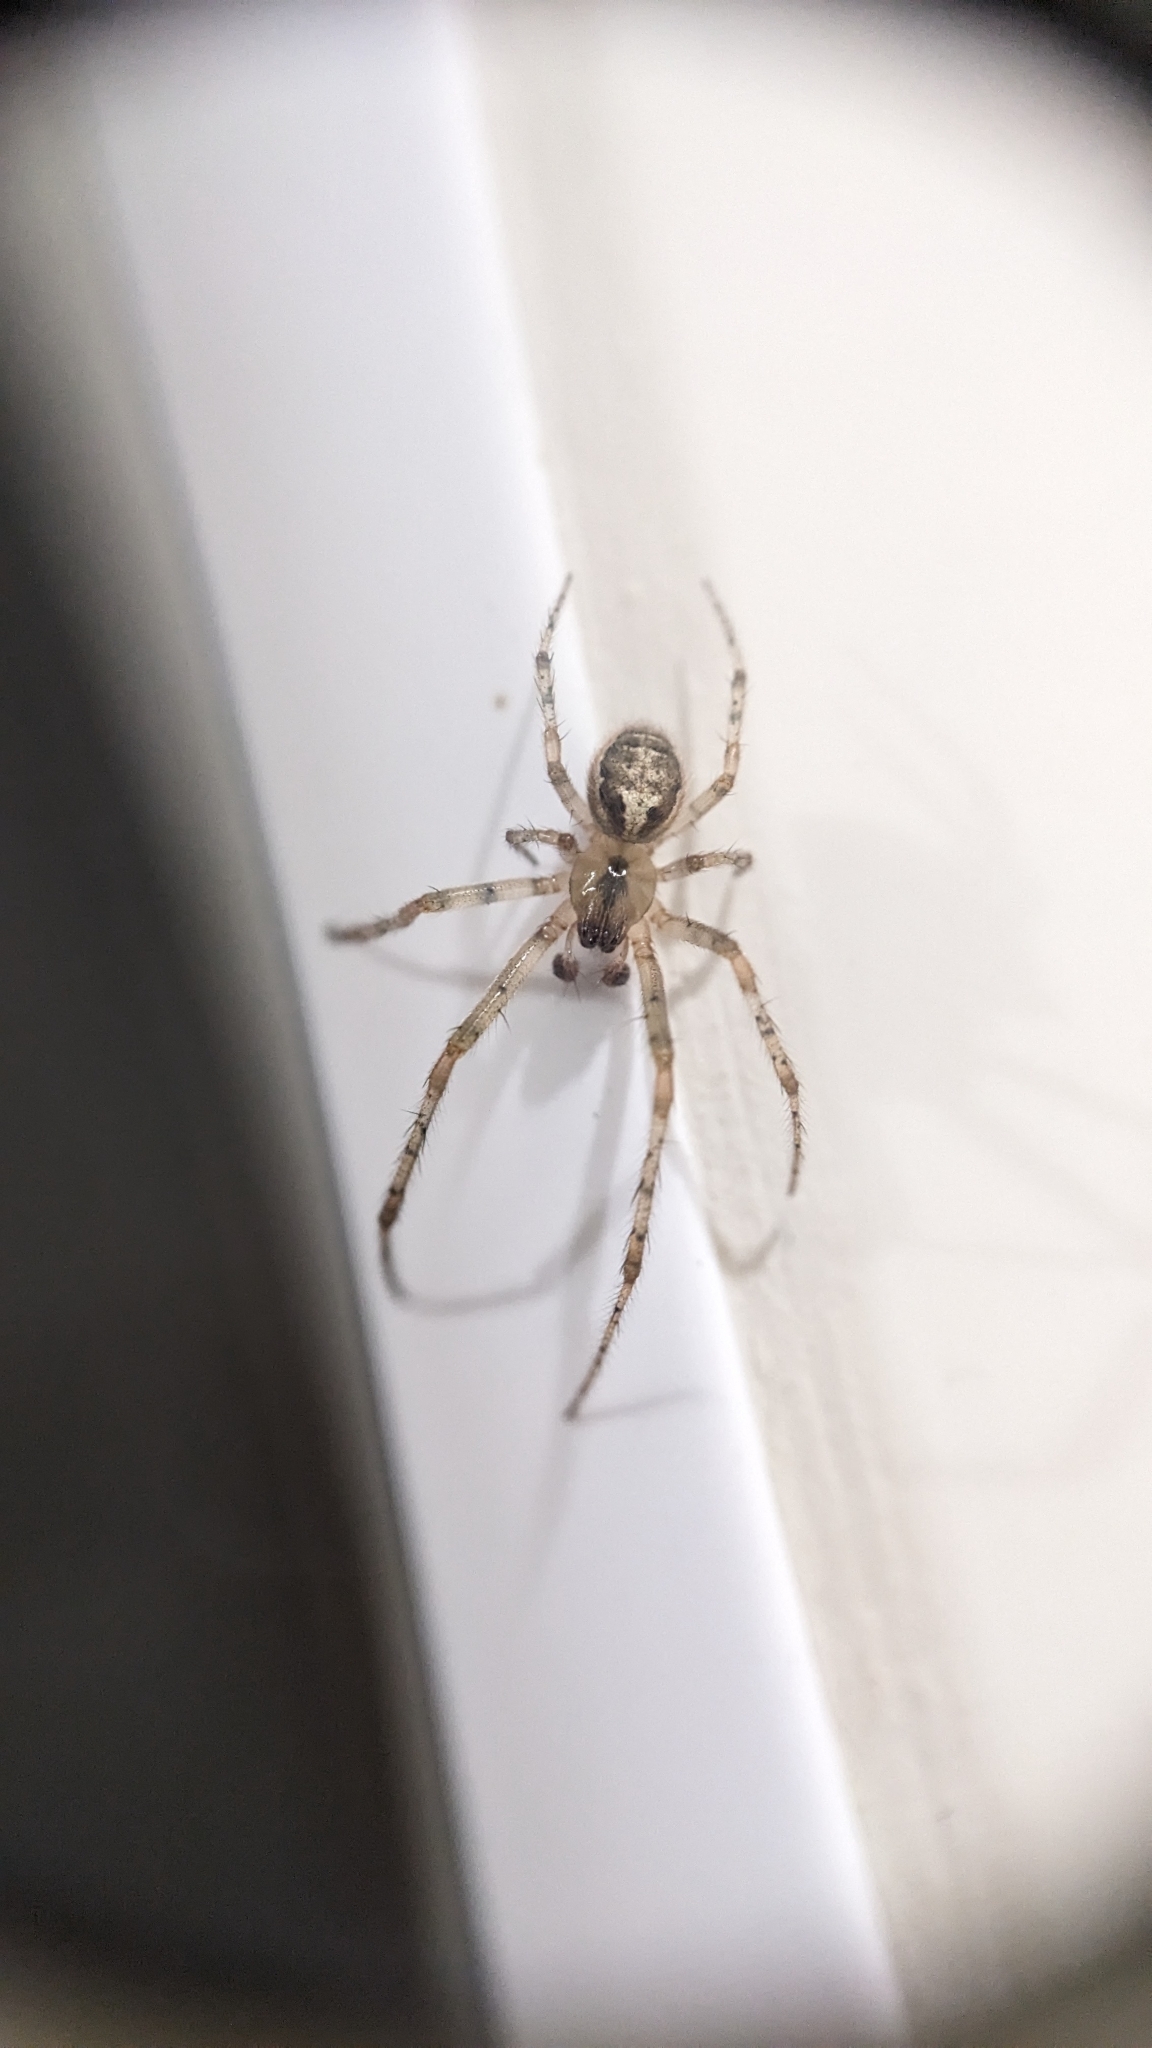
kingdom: Animalia
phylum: Arthropoda
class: Arachnida
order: Araneae
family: Araneidae
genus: Zygiella
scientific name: Zygiella x-notata
